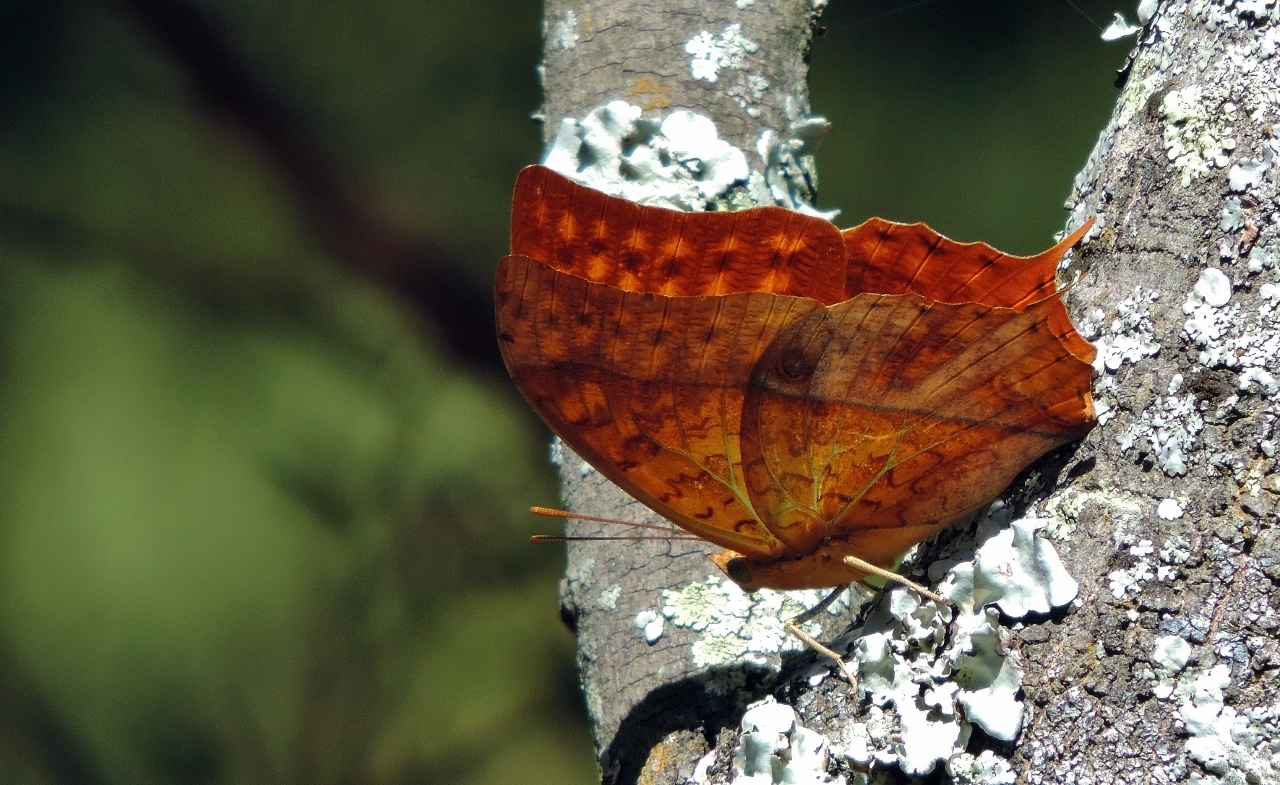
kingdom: Animalia
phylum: Arthropoda
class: Insecta
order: Lepidoptera
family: Nymphalidae
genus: Charaxes
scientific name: Charaxes varanes
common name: Common pearl charaxes
